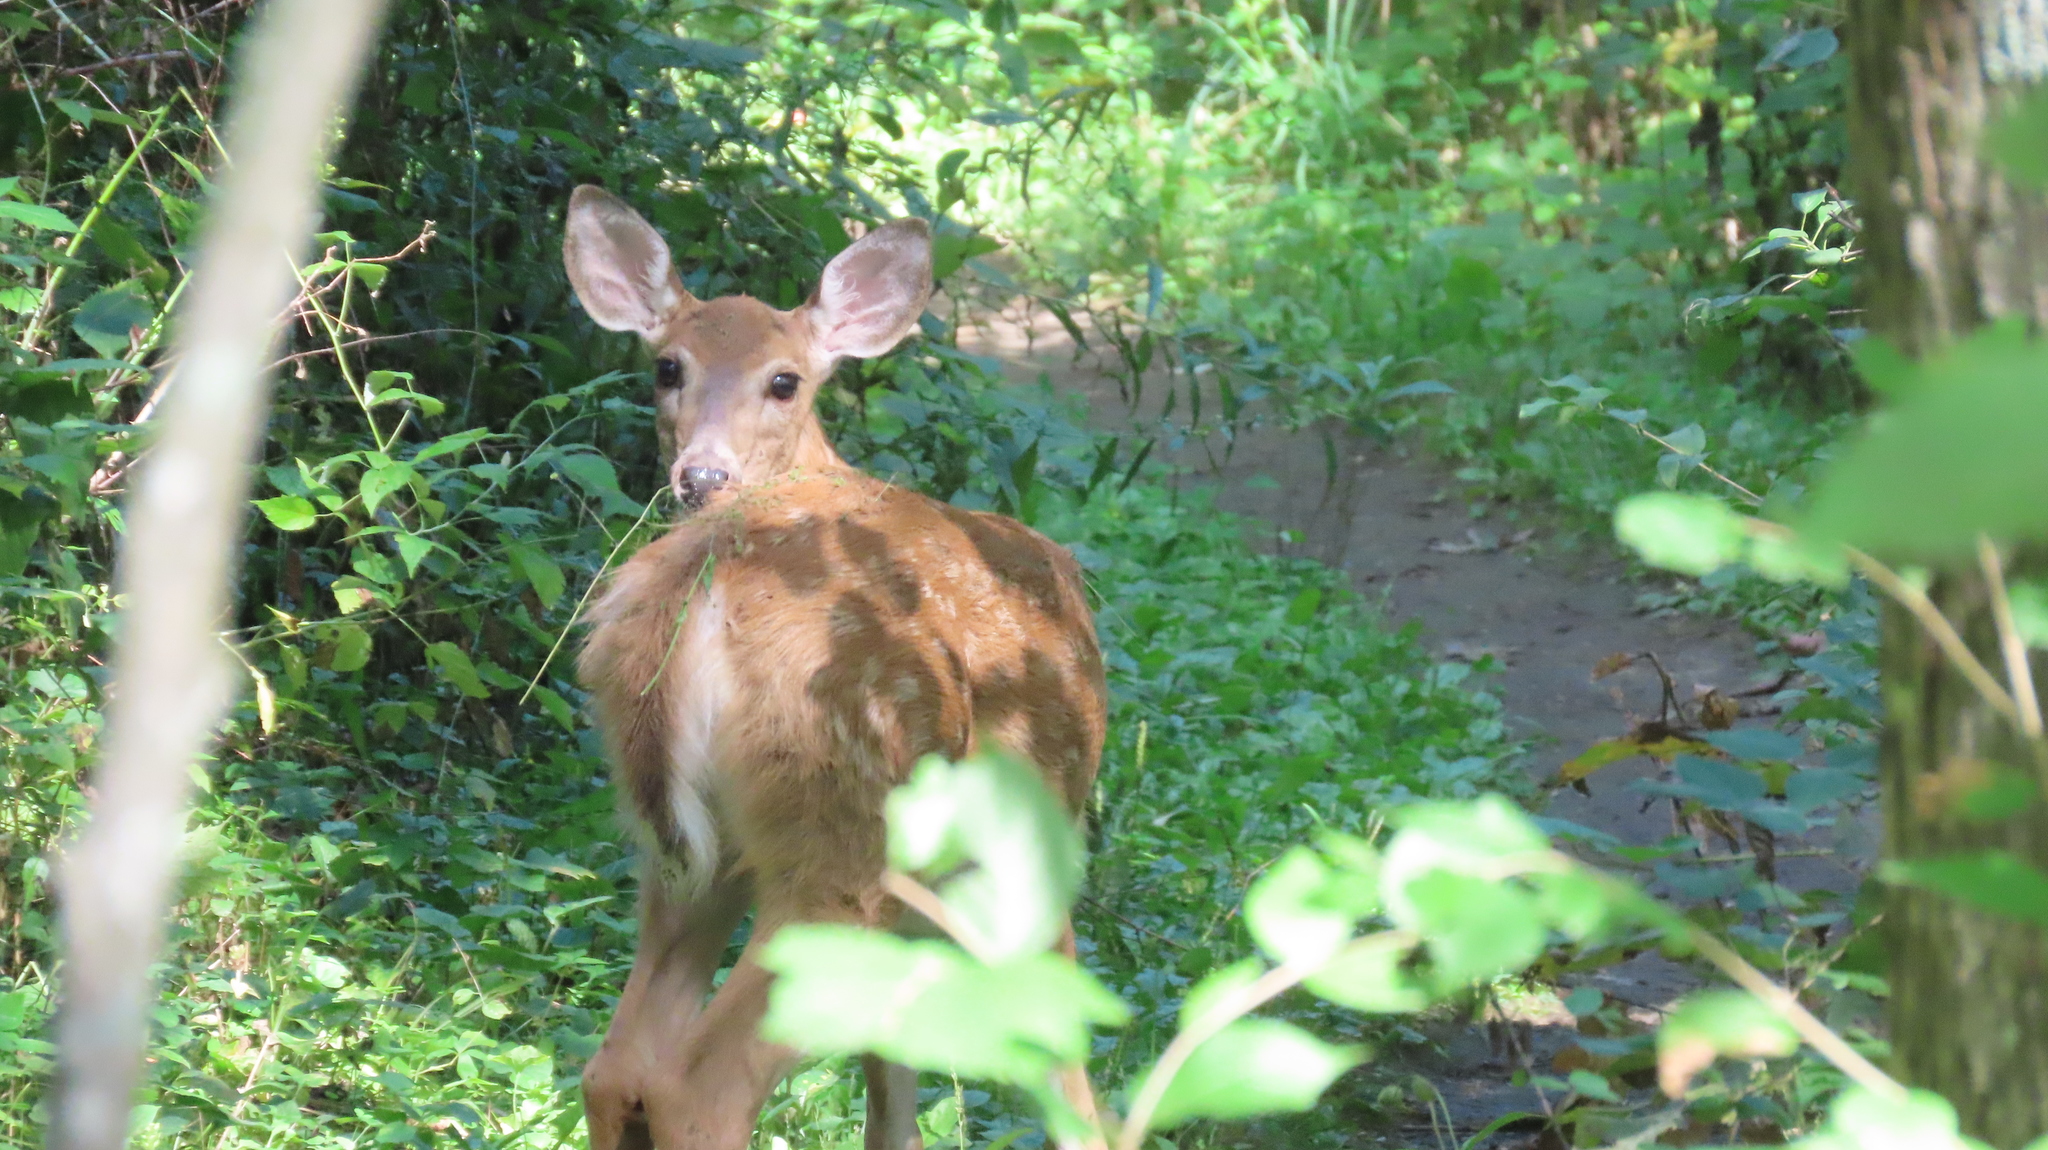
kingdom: Animalia
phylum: Chordata
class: Mammalia
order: Artiodactyla
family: Cervidae
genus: Odocoileus
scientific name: Odocoileus virginianus
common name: White-tailed deer
